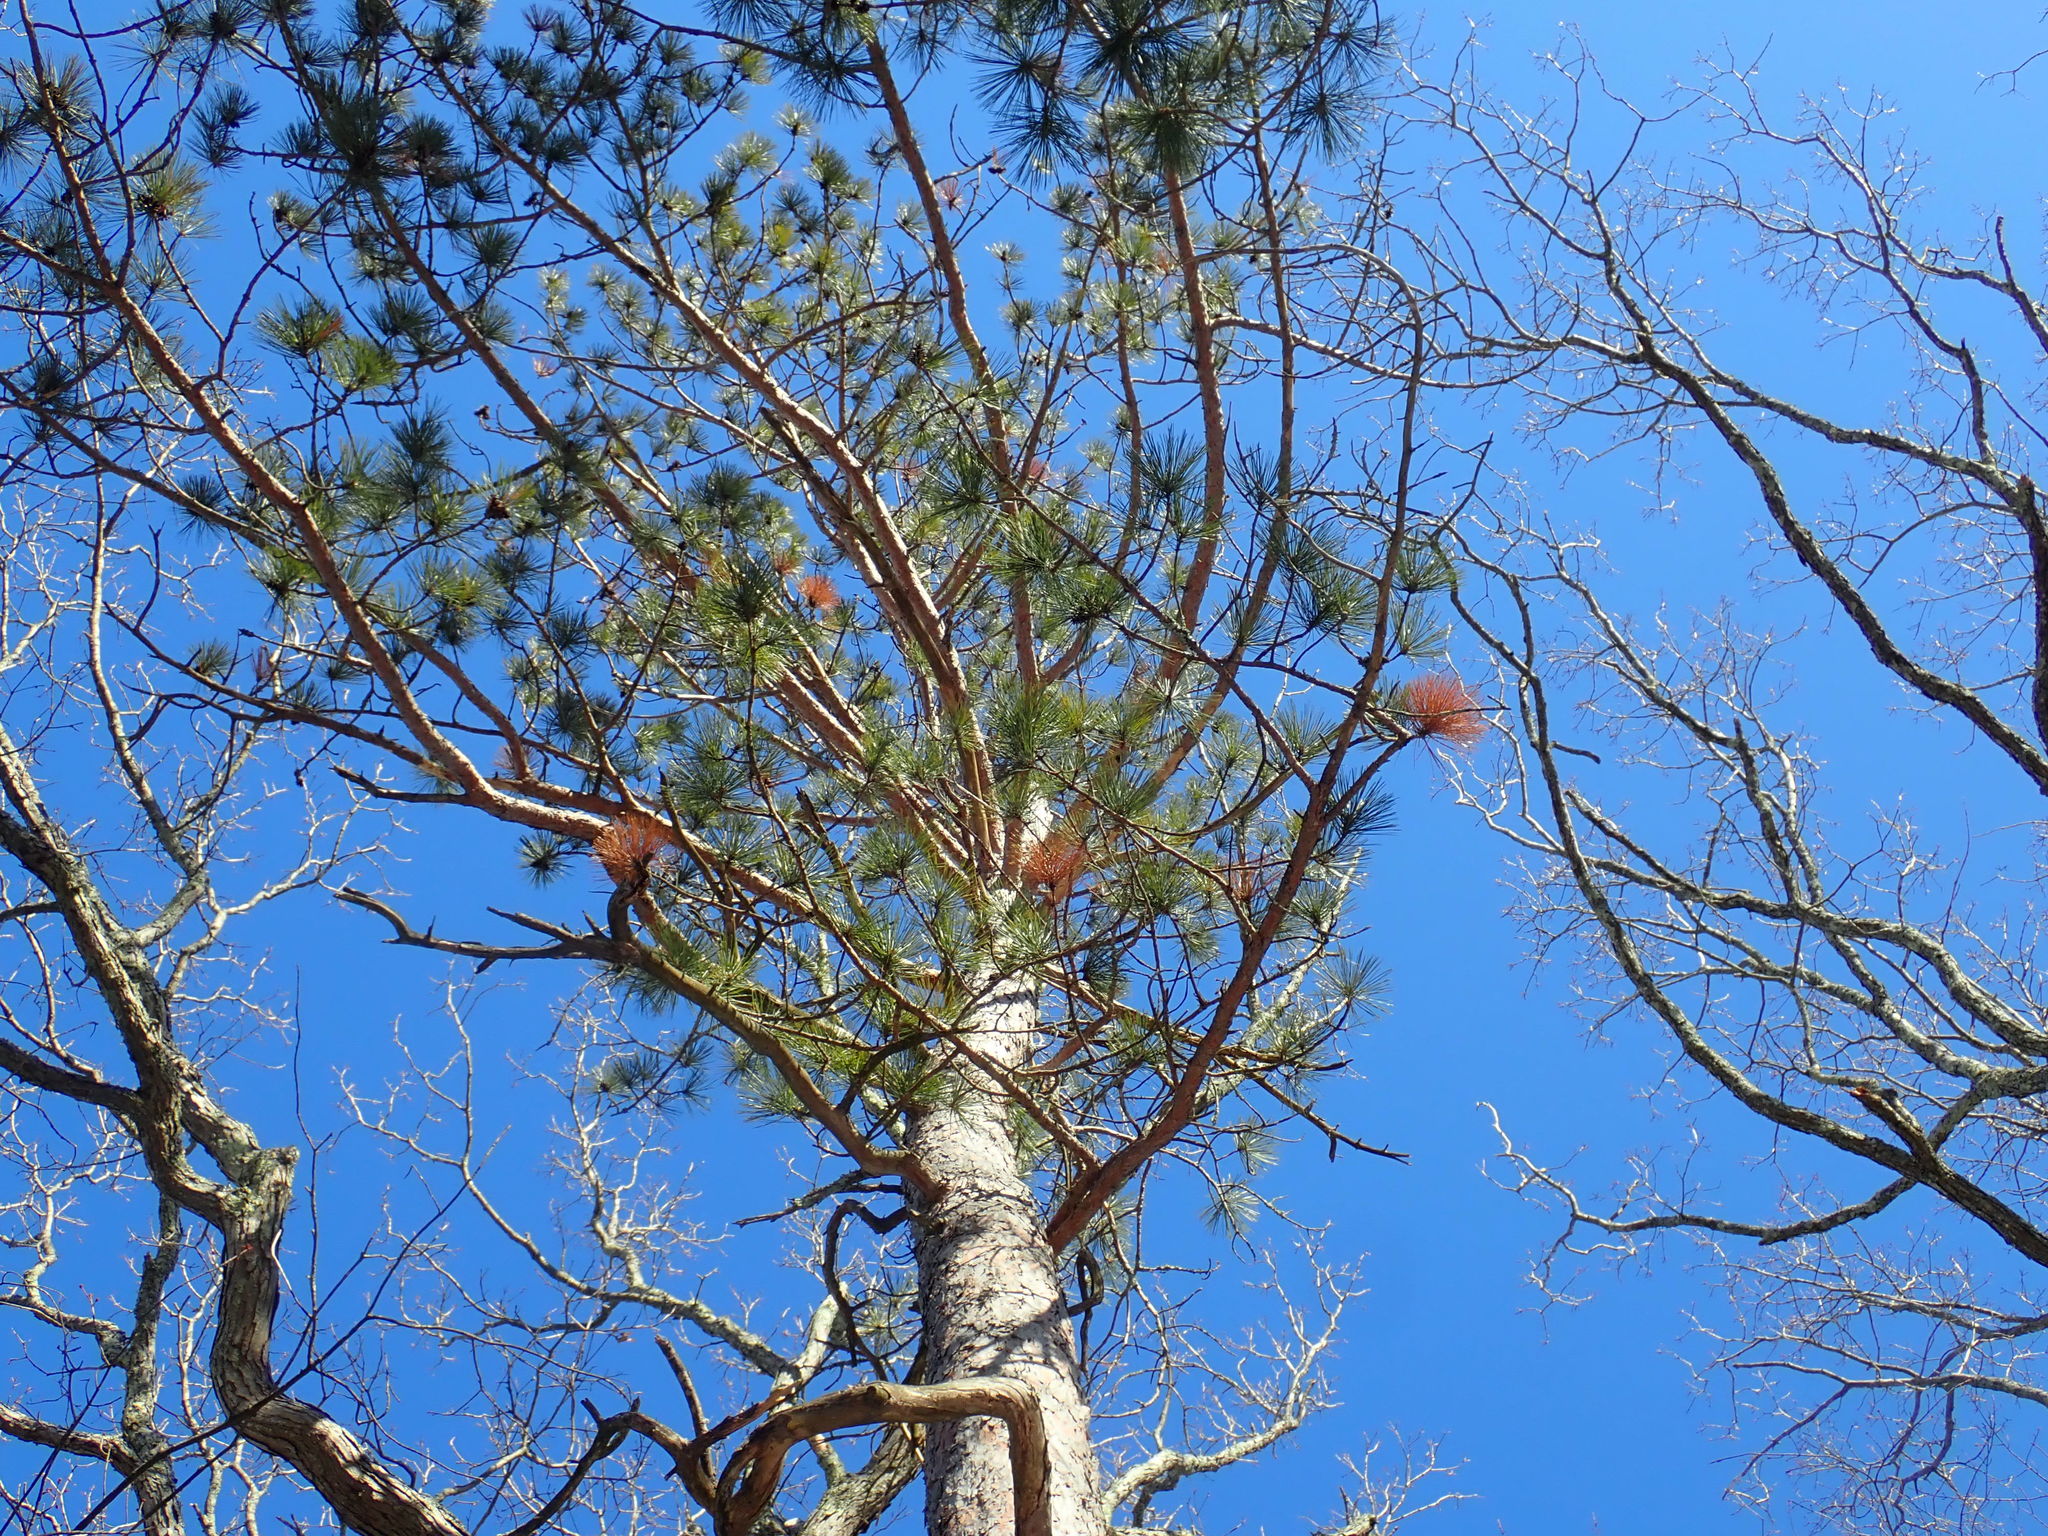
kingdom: Plantae
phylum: Tracheophyta
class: Pinopsida
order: Pinales
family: Pinaceae
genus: Pinus
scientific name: Pinus resinosa
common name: Norway pine
